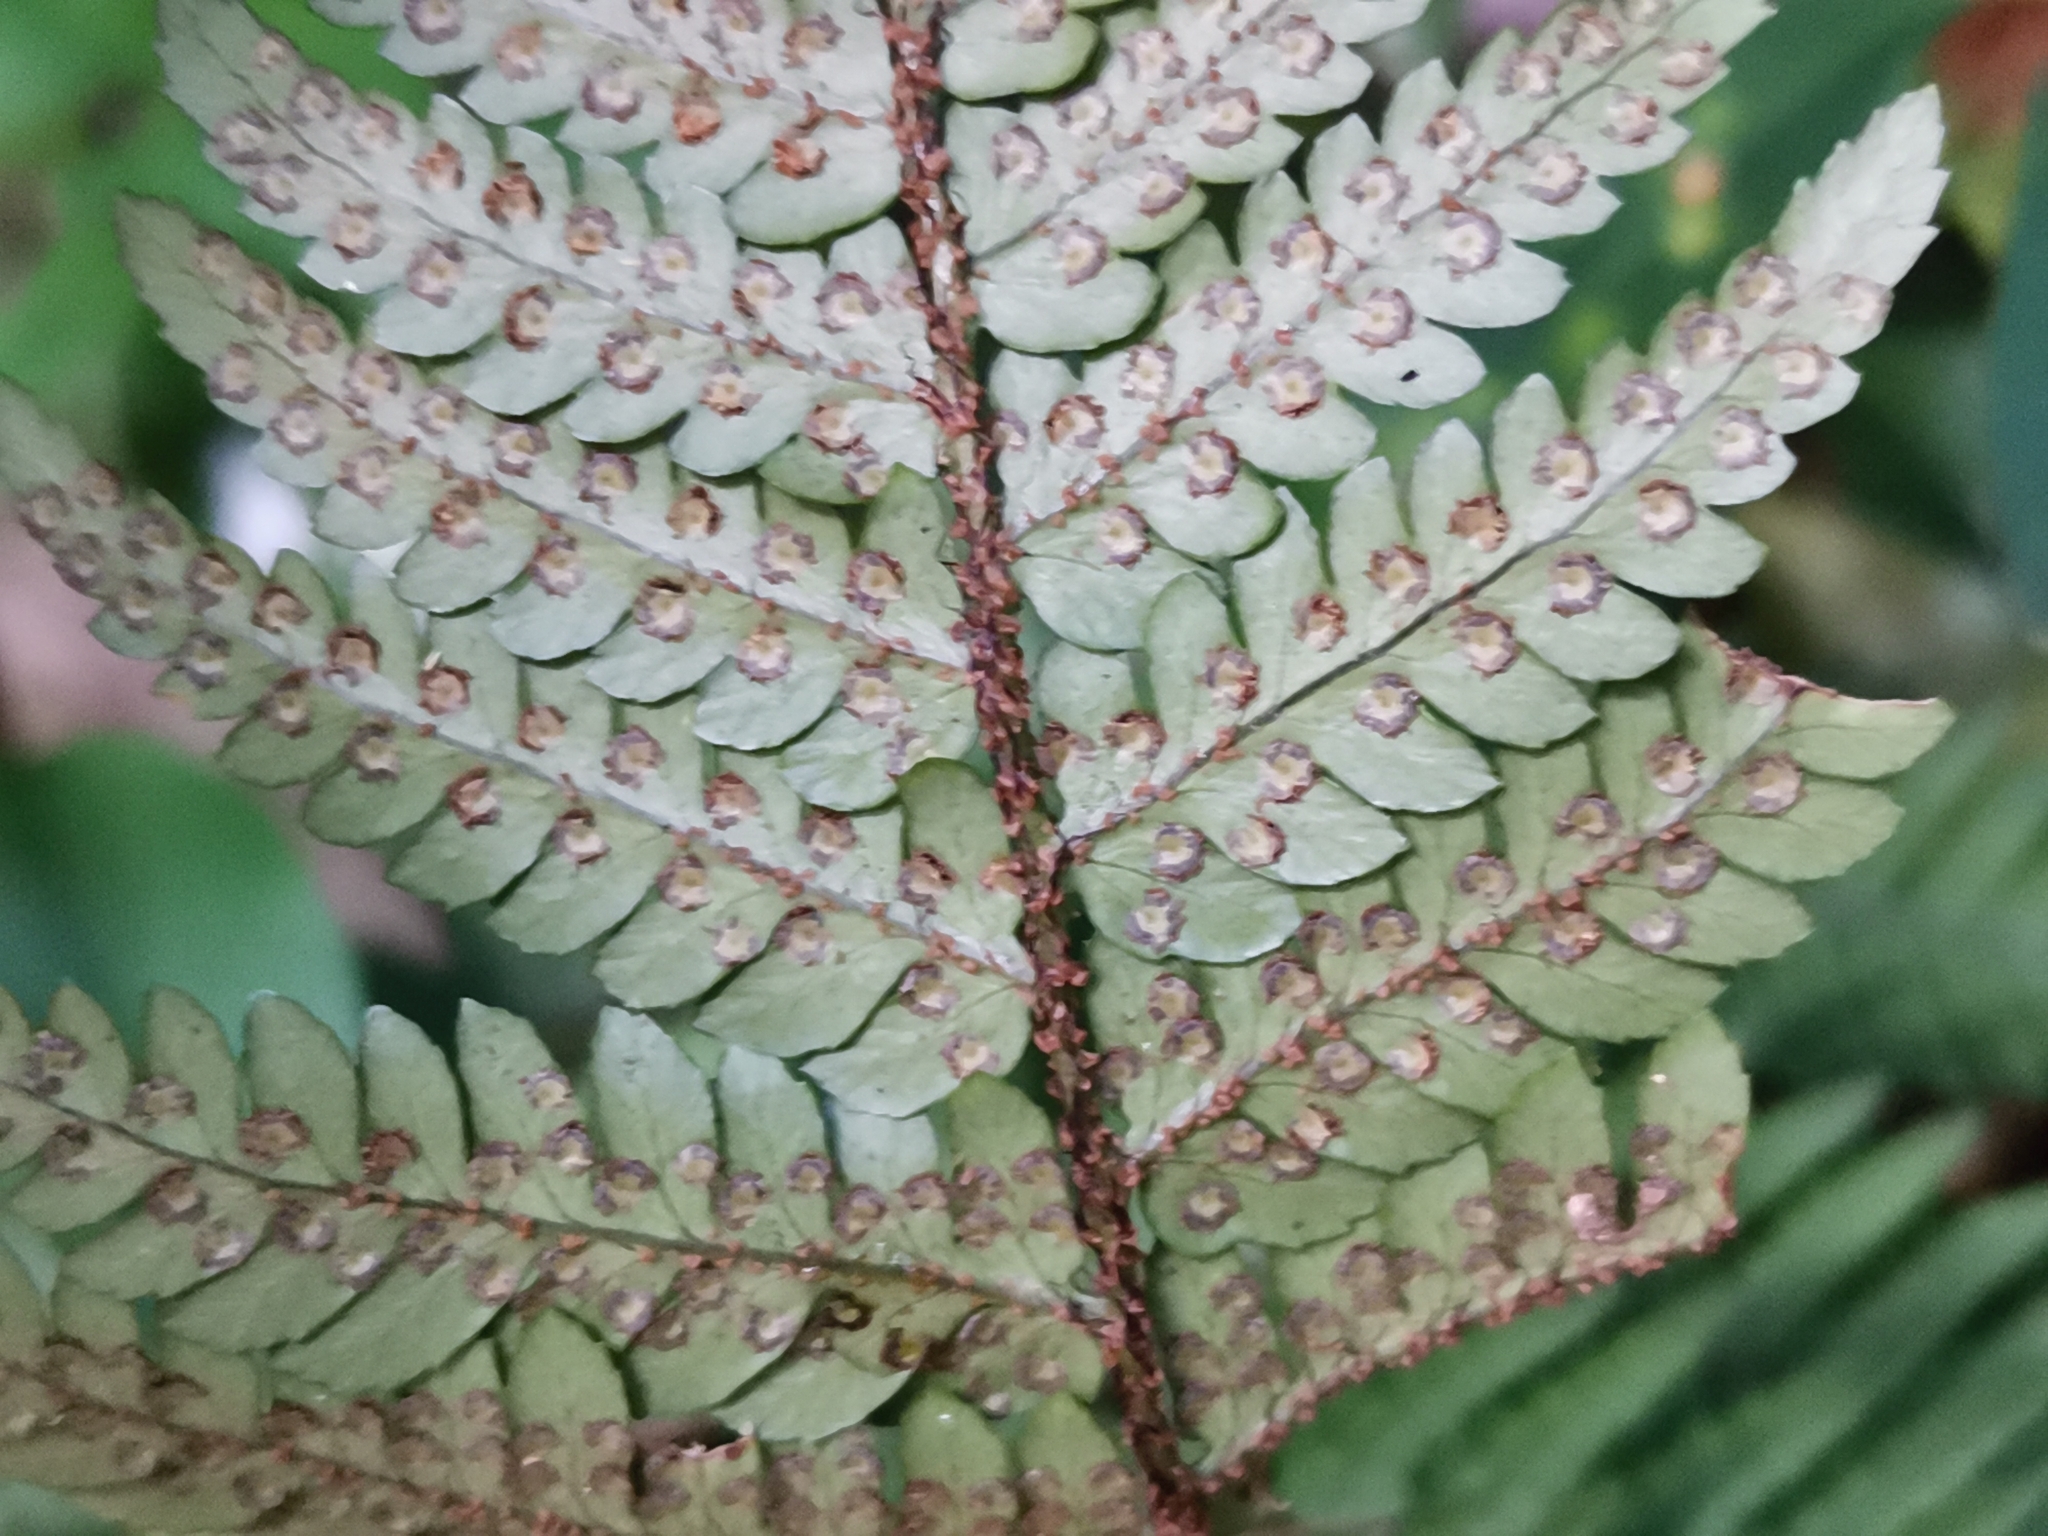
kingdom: Plantae
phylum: Tracheophyta
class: Polypodiopsida
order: Polypodiales
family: Dryopteridaceae
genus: Dryopteris
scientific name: Dryopteris immixta
